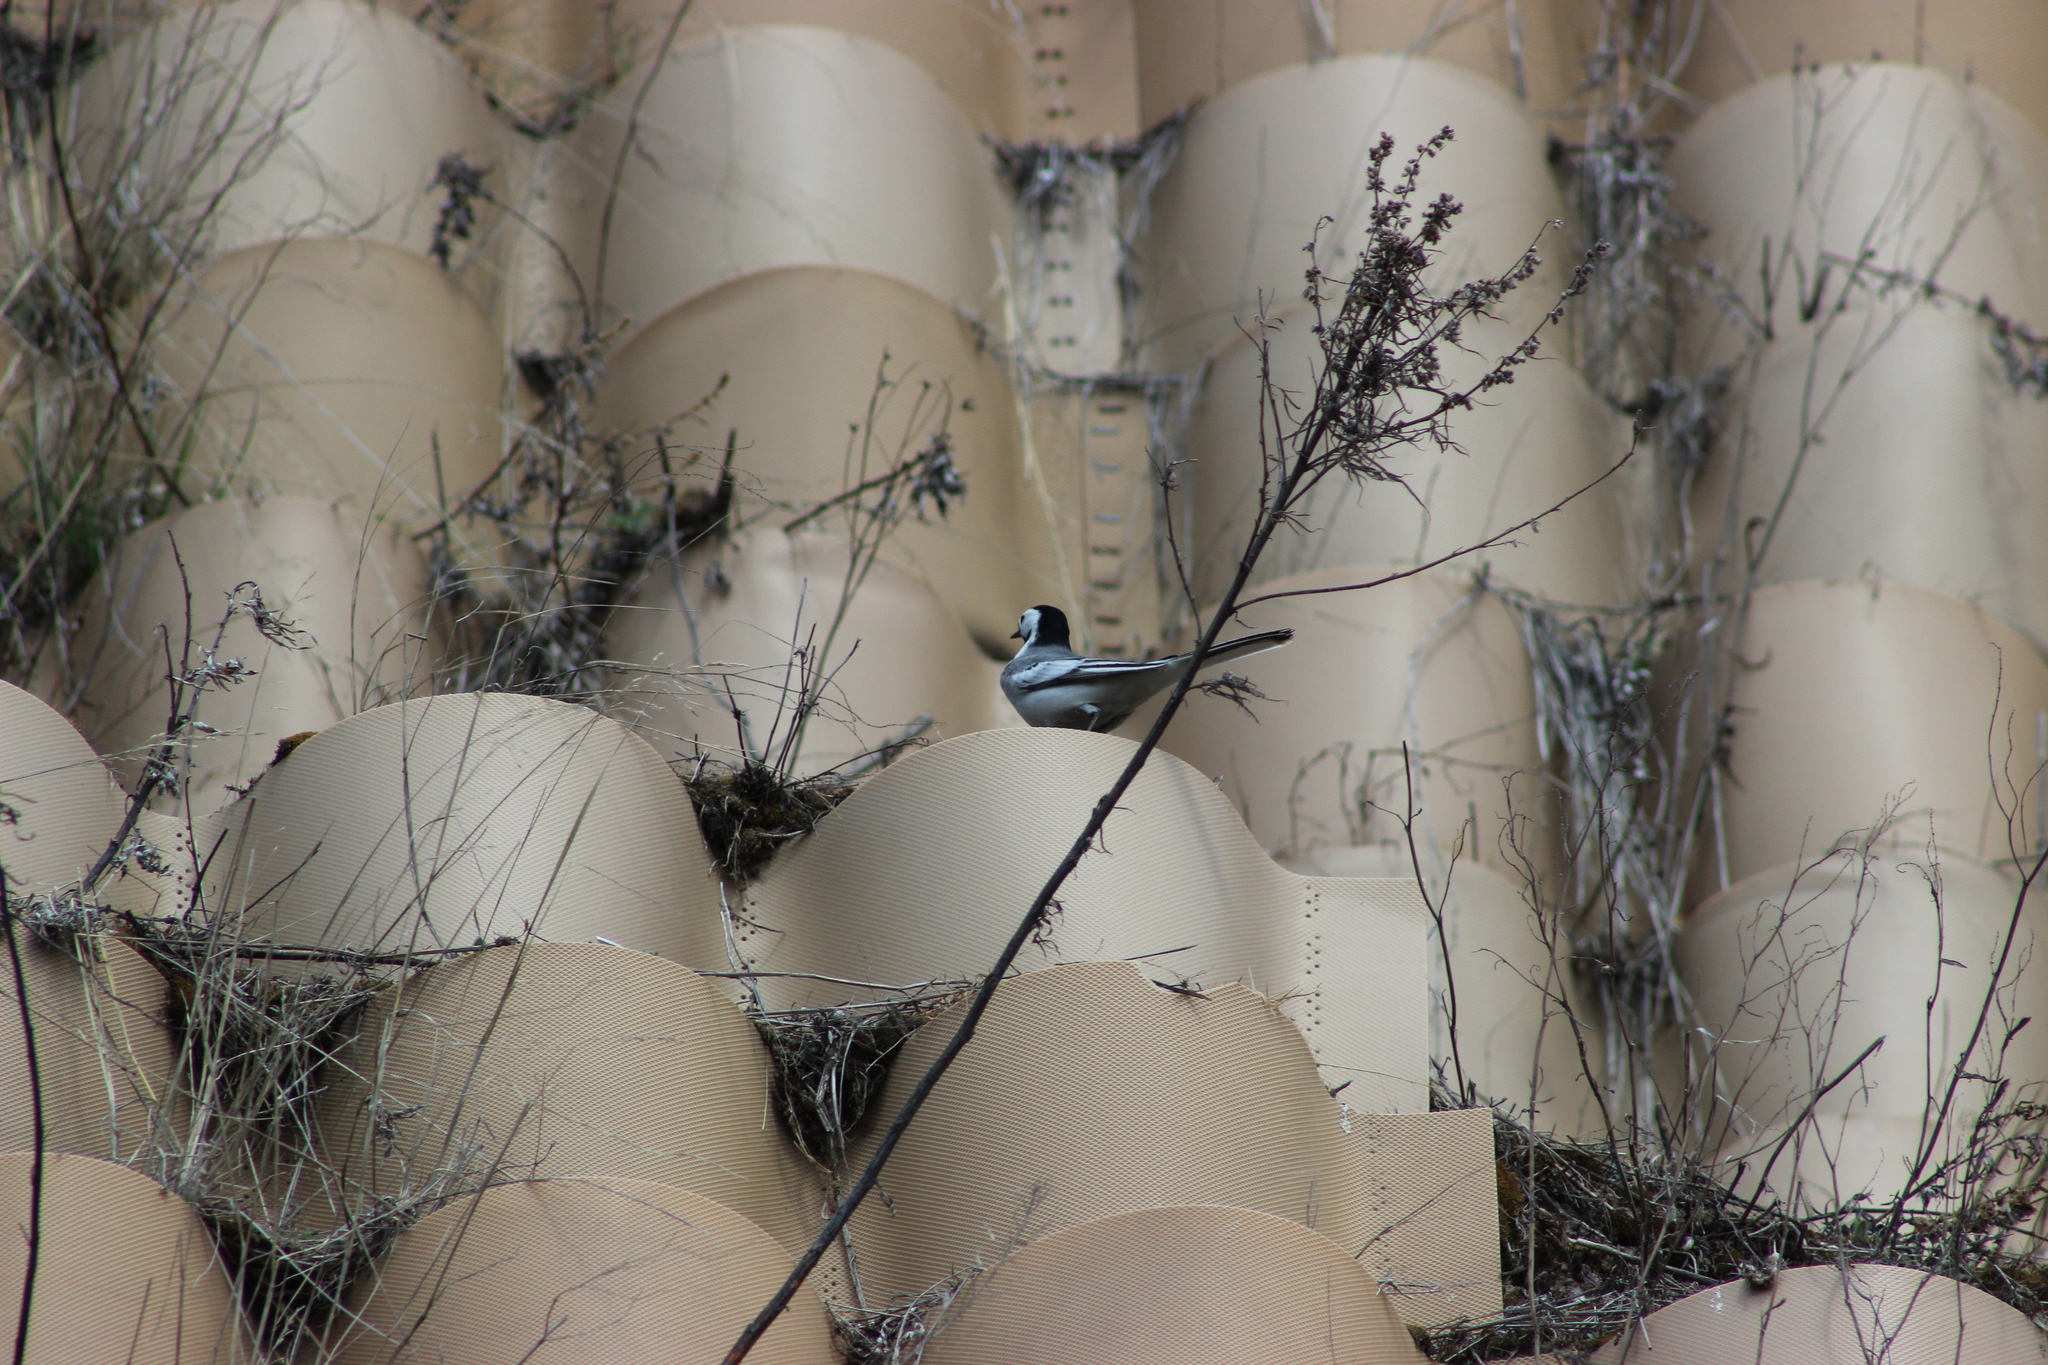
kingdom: Animalia
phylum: Chordata
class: Aves
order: Passeriformes
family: Motacillidae
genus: Motacilla
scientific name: Motacilla alba
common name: White wagtail
